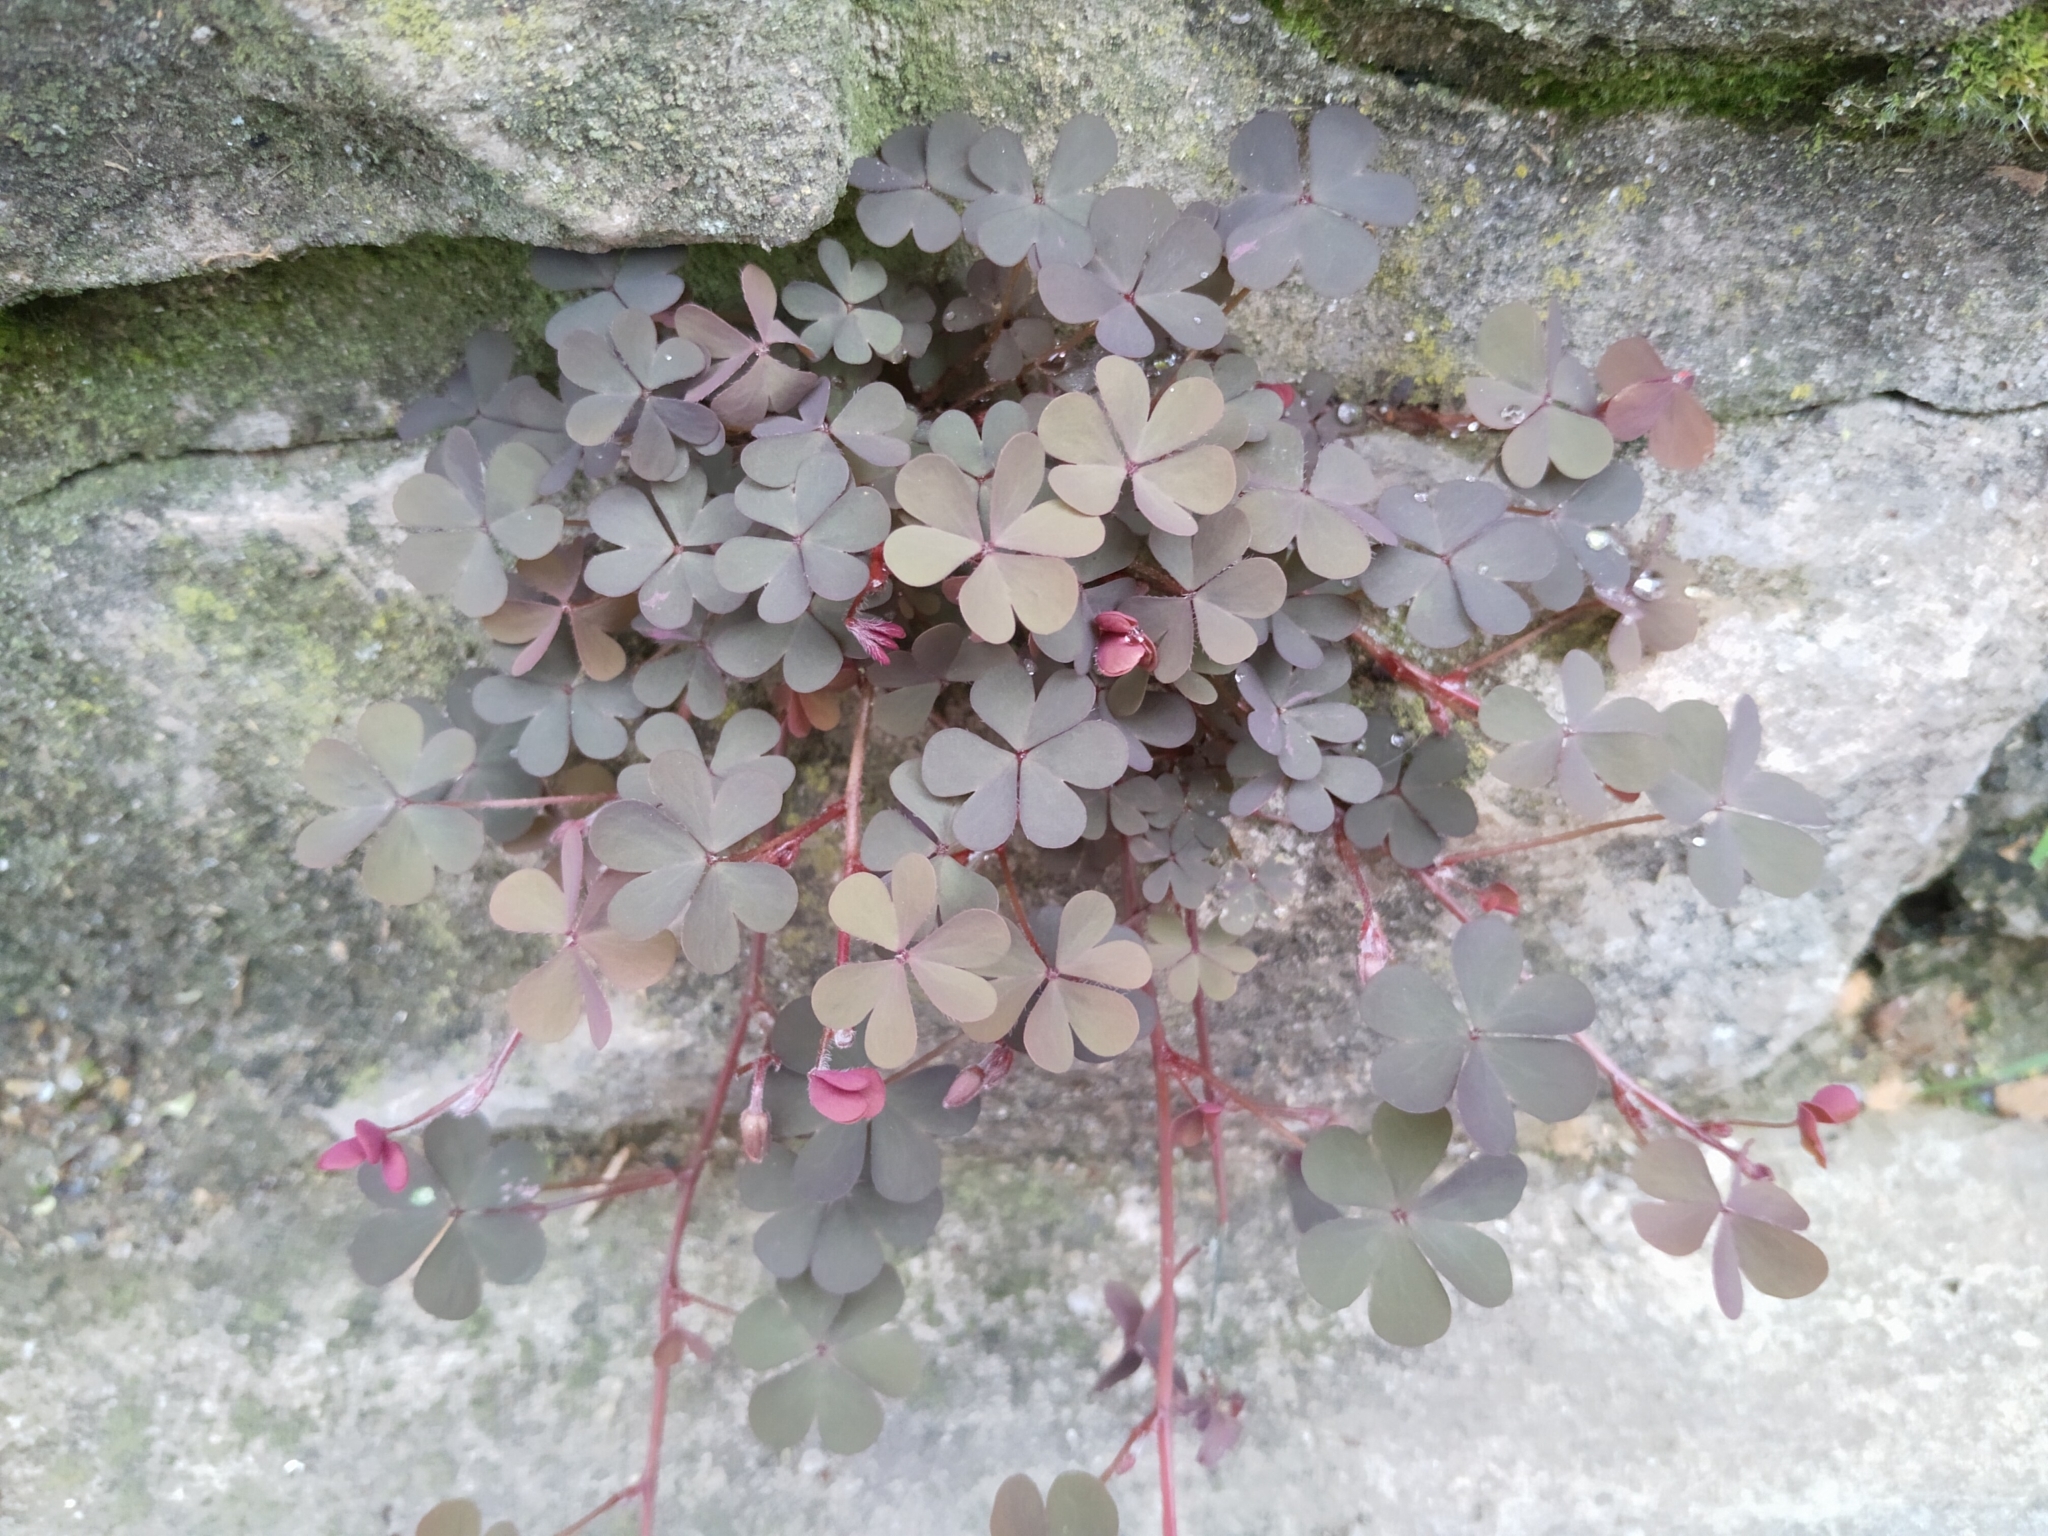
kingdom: Plantae
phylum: Tracheophyta
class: Magnoliopsida
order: Oxalidales
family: Oxalidaceae
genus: Oxalis
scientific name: Oxalis corniculata
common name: Procumbent yellow-sorrel
